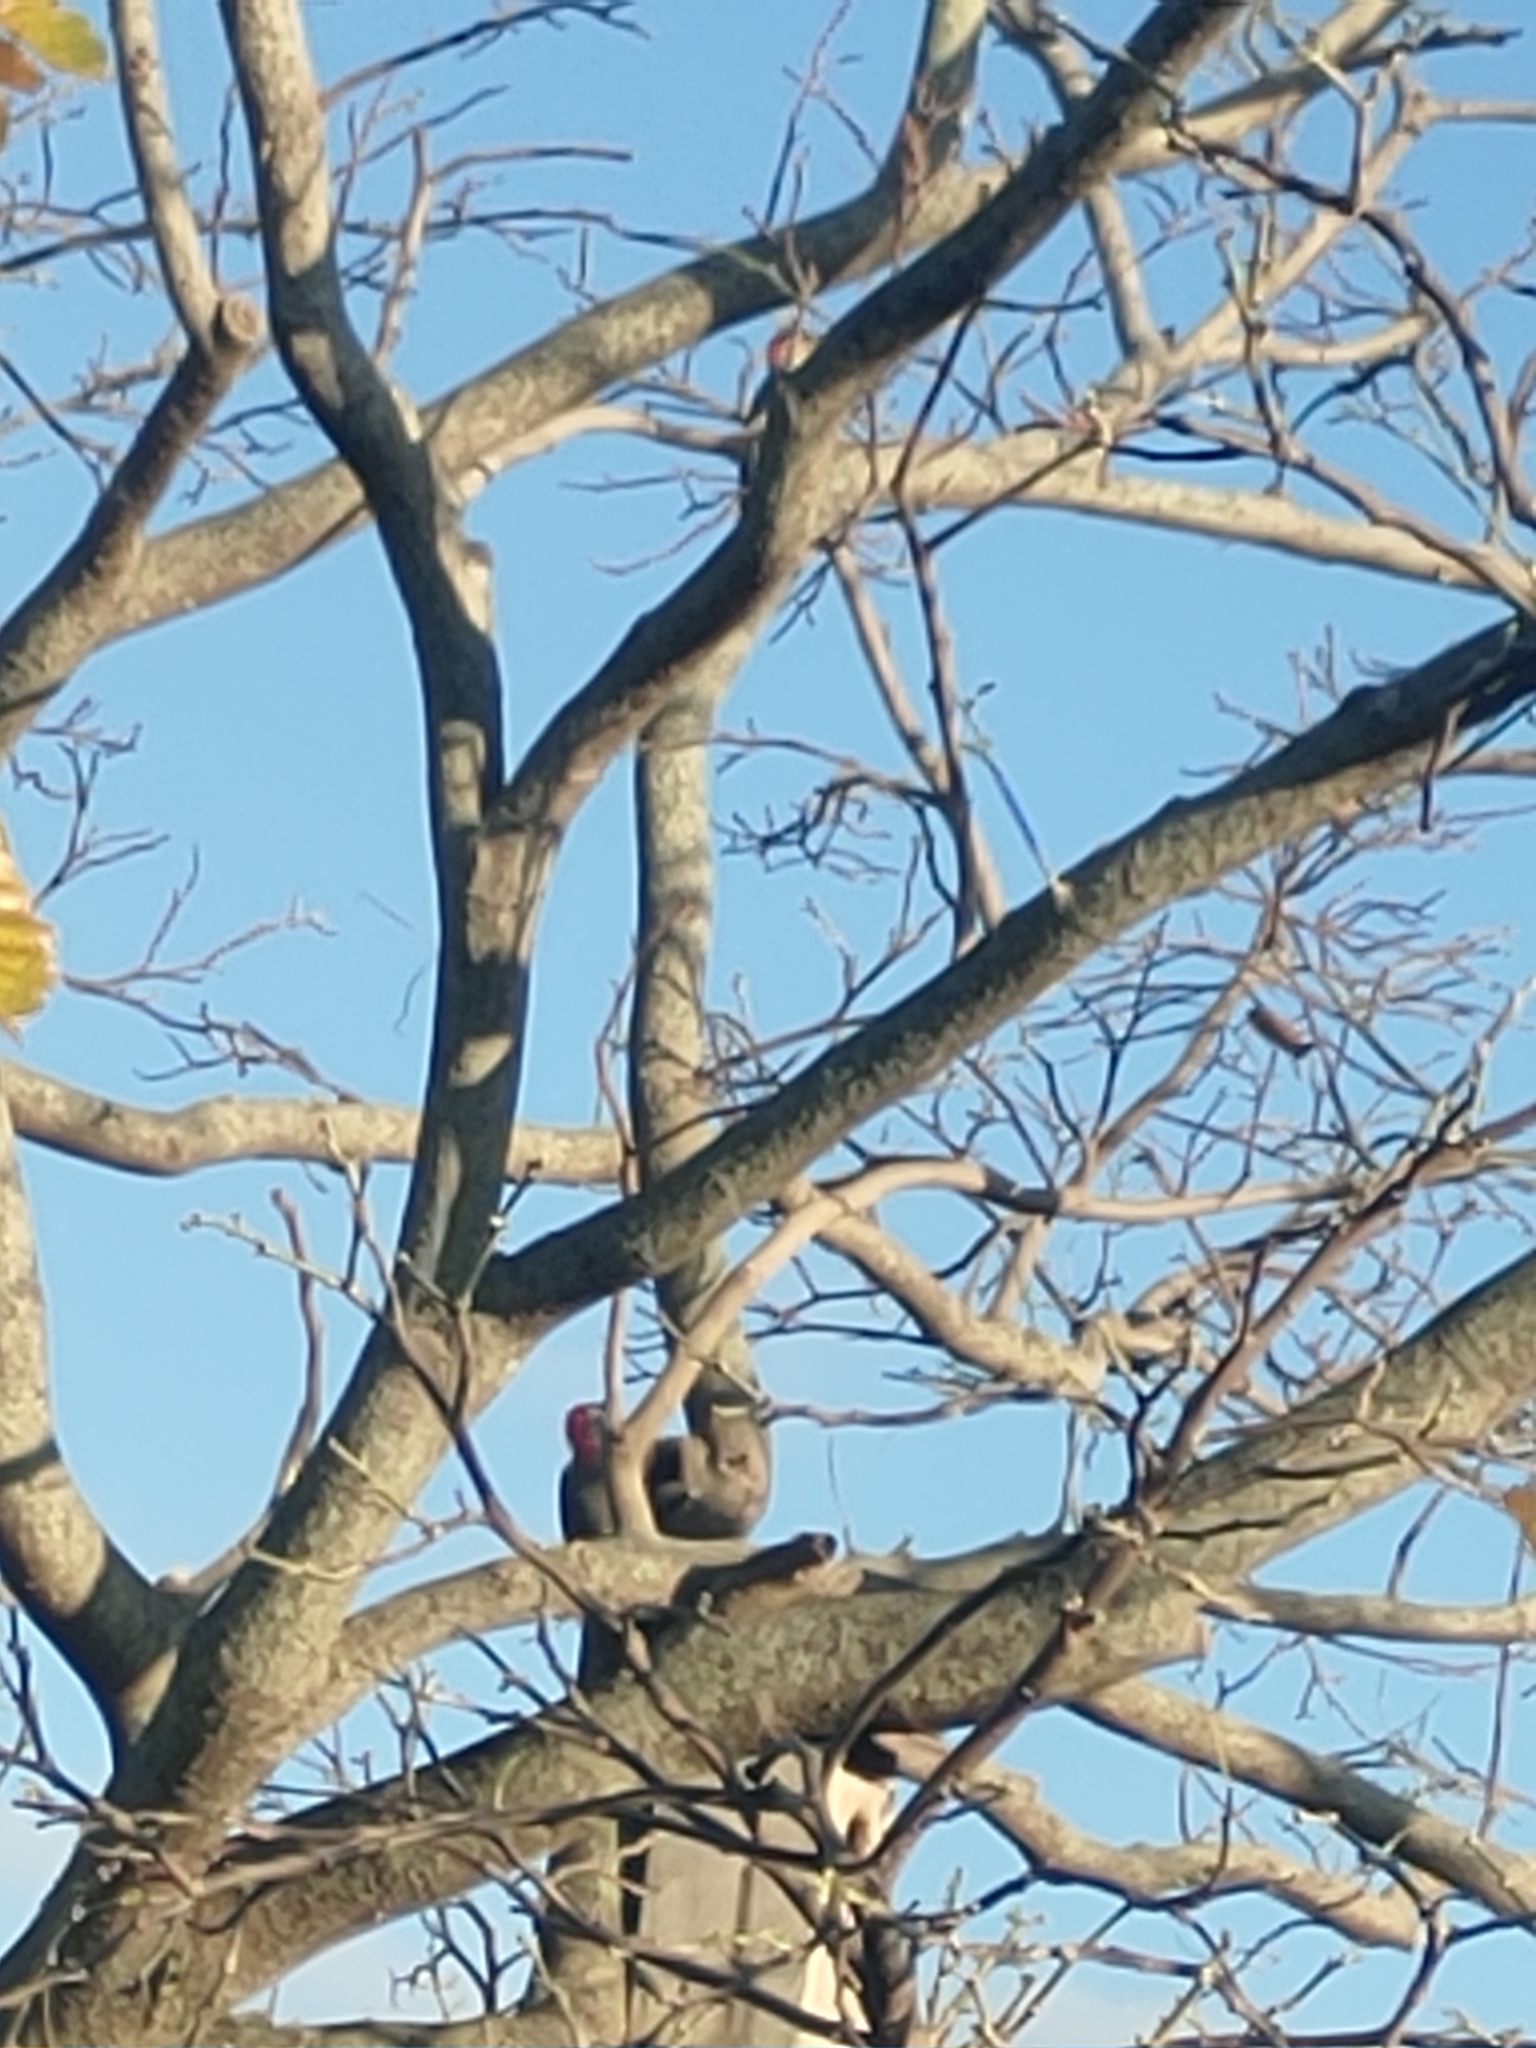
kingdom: Animalia
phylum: Chordata
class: Aves
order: Piciformes
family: Picidae
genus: Melanerpes
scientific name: Melanerpes carolinus
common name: Red-bellied woodpecker
